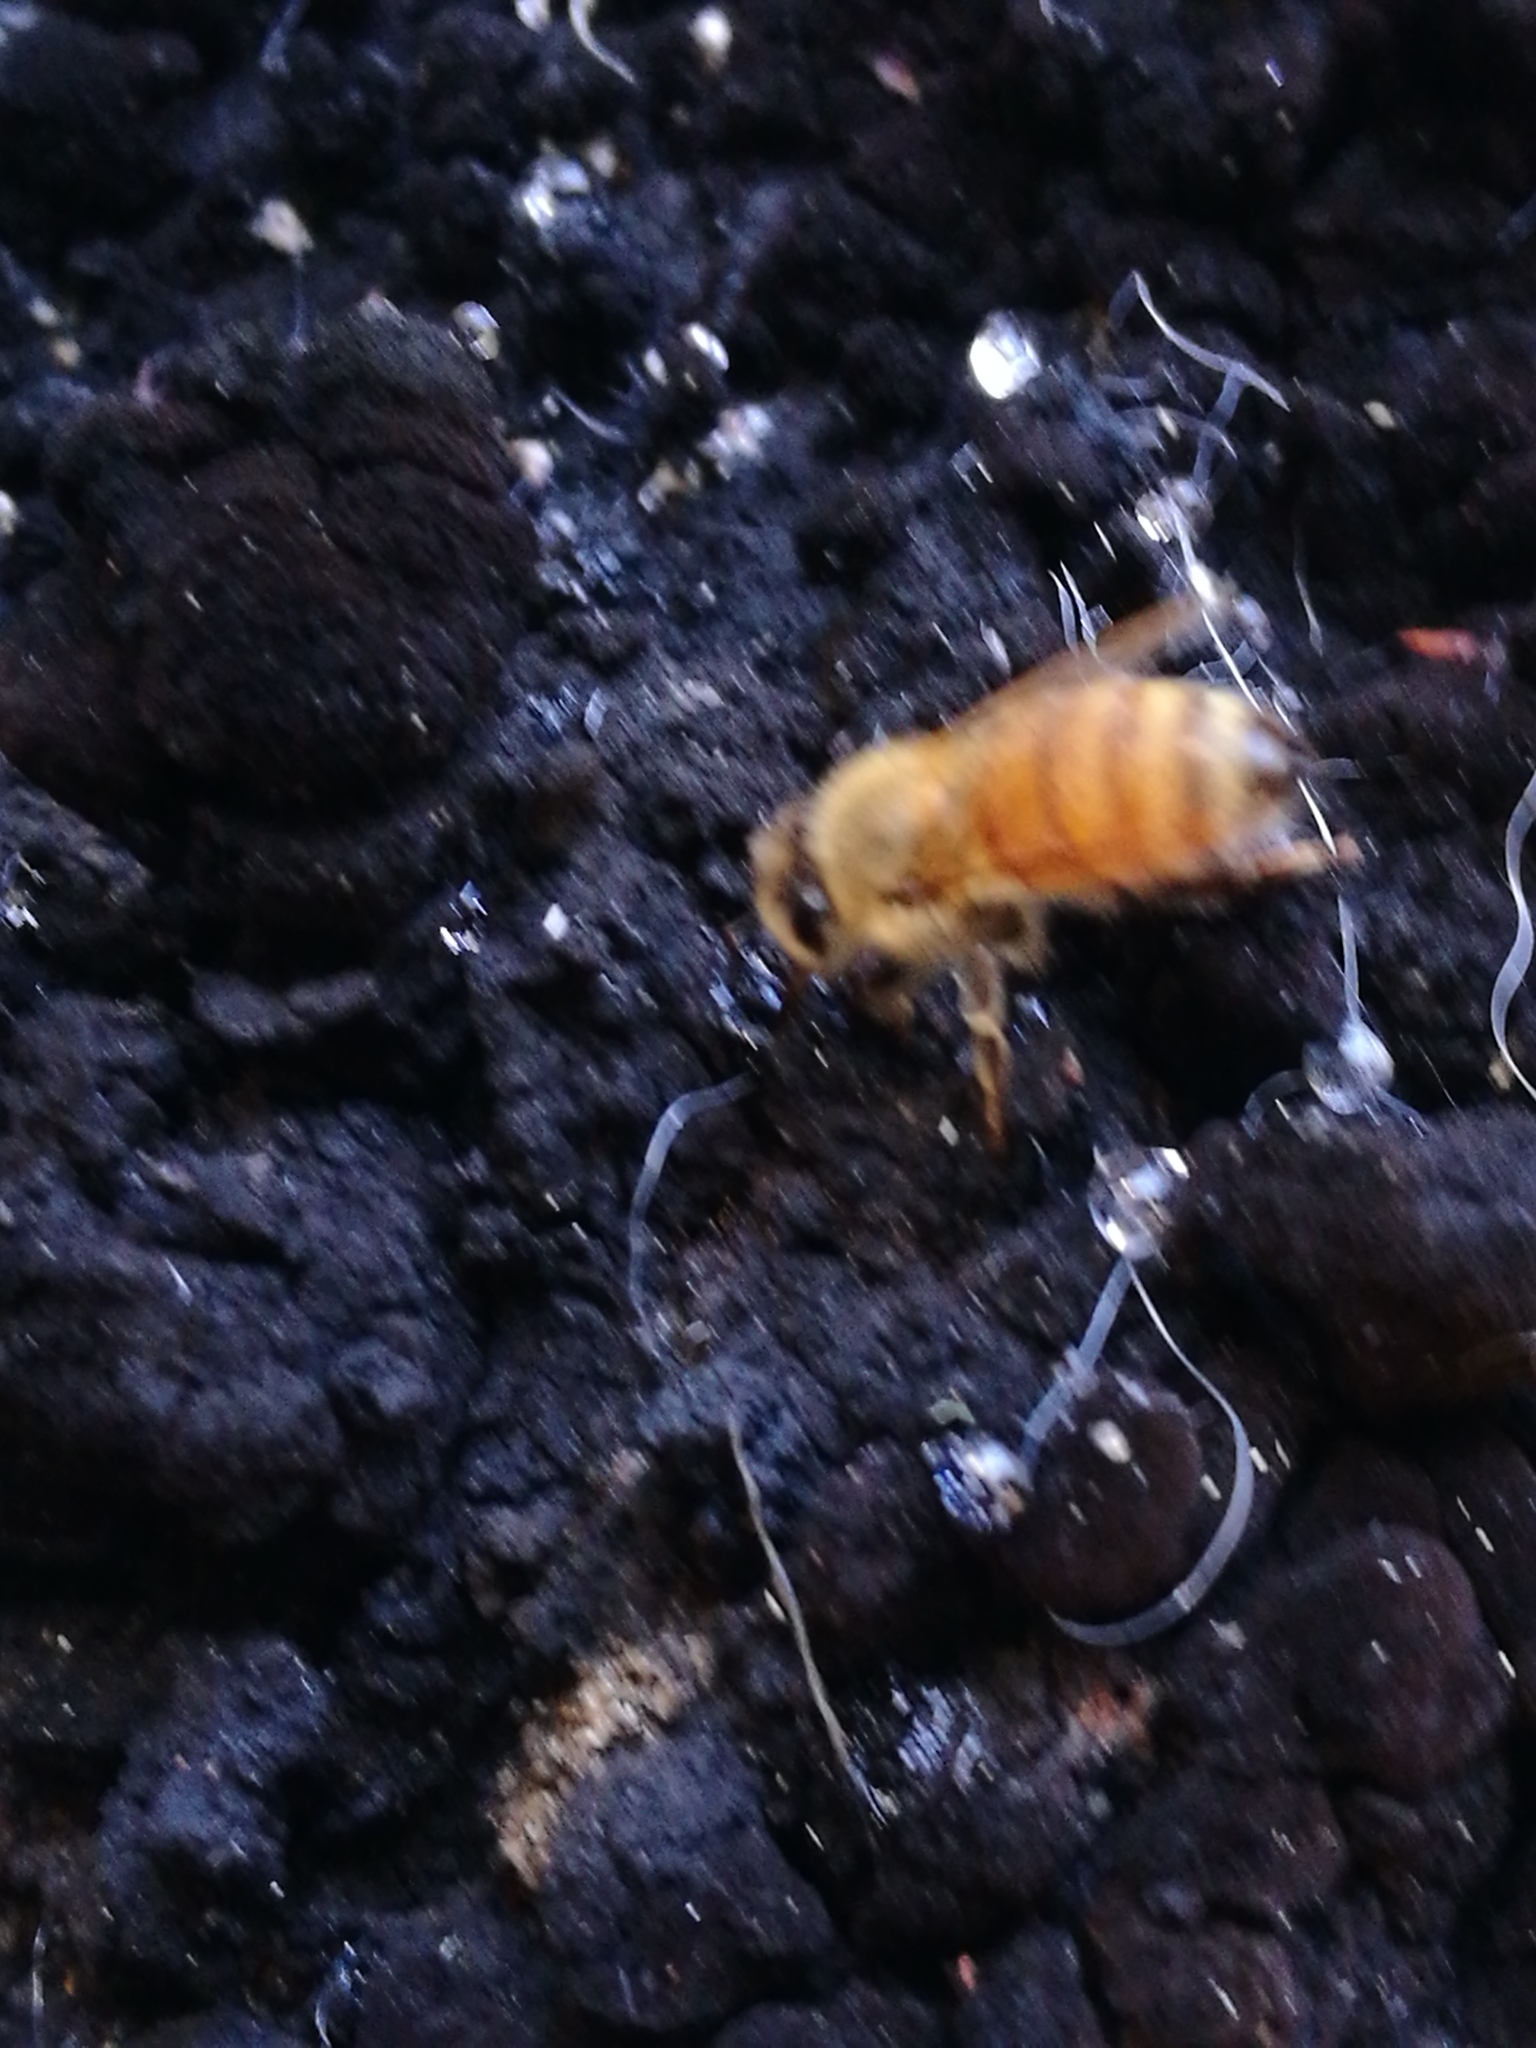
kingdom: Animalia
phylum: Arthropoda
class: Insecta
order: Hymenoptera
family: Apidae
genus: Apis
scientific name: Apis mellifera
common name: Honey bee
